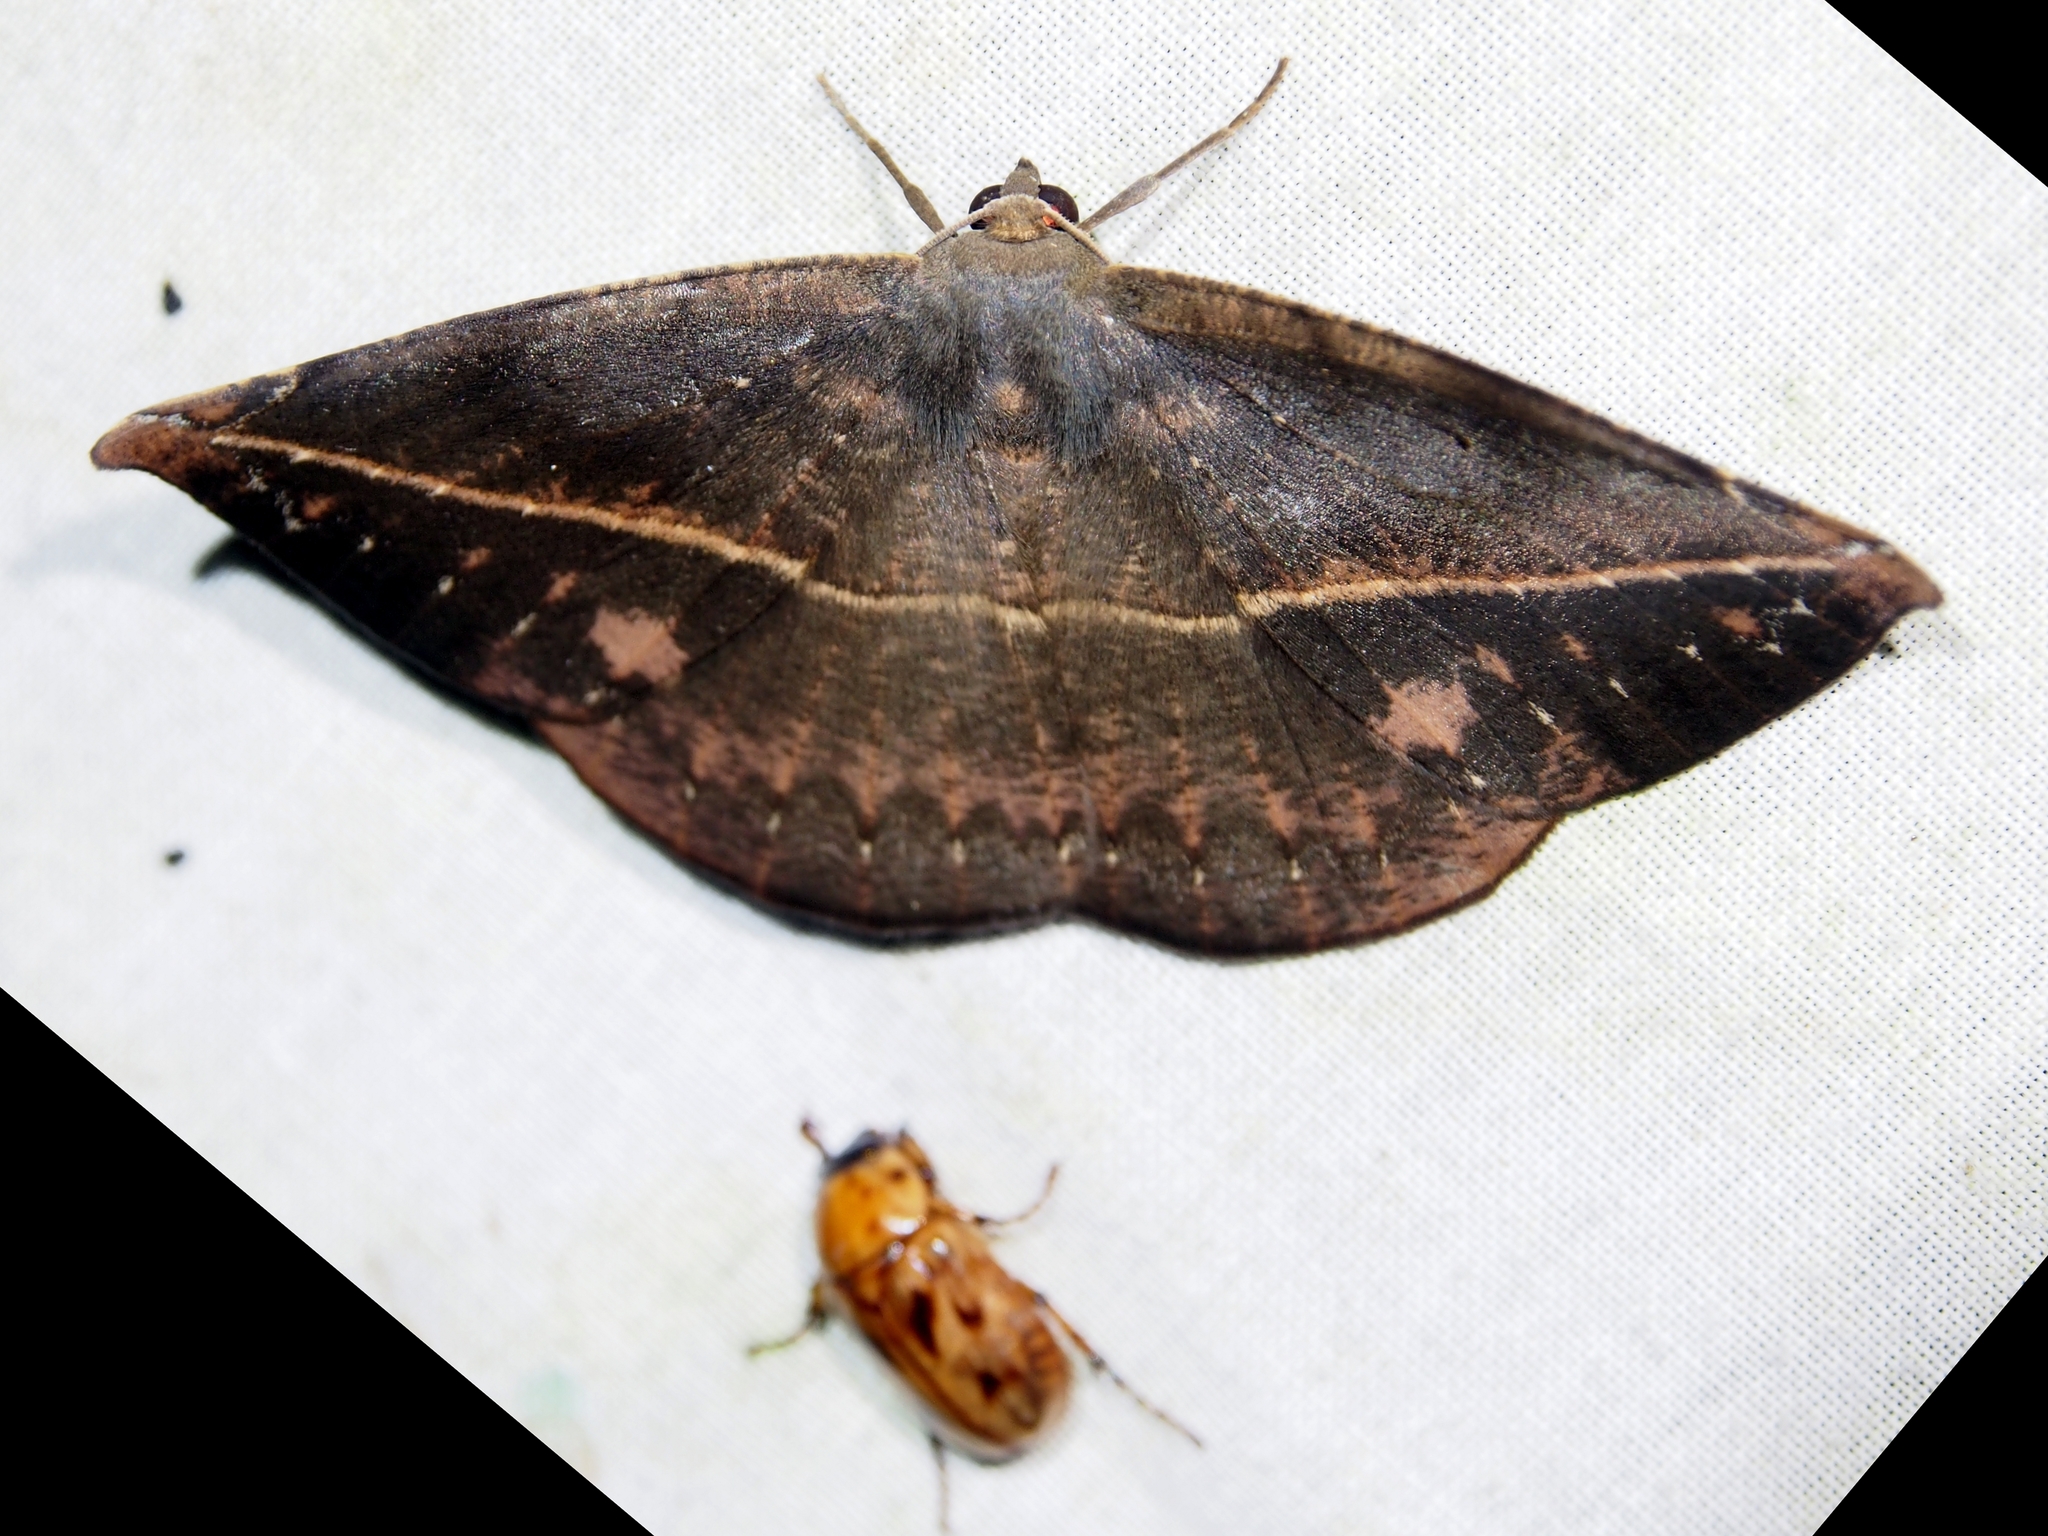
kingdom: Animalia
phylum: Arthropoda
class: Insecta
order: Lepidoptera
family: Geometridae
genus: Oxydia
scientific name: Oxydia bilinea
